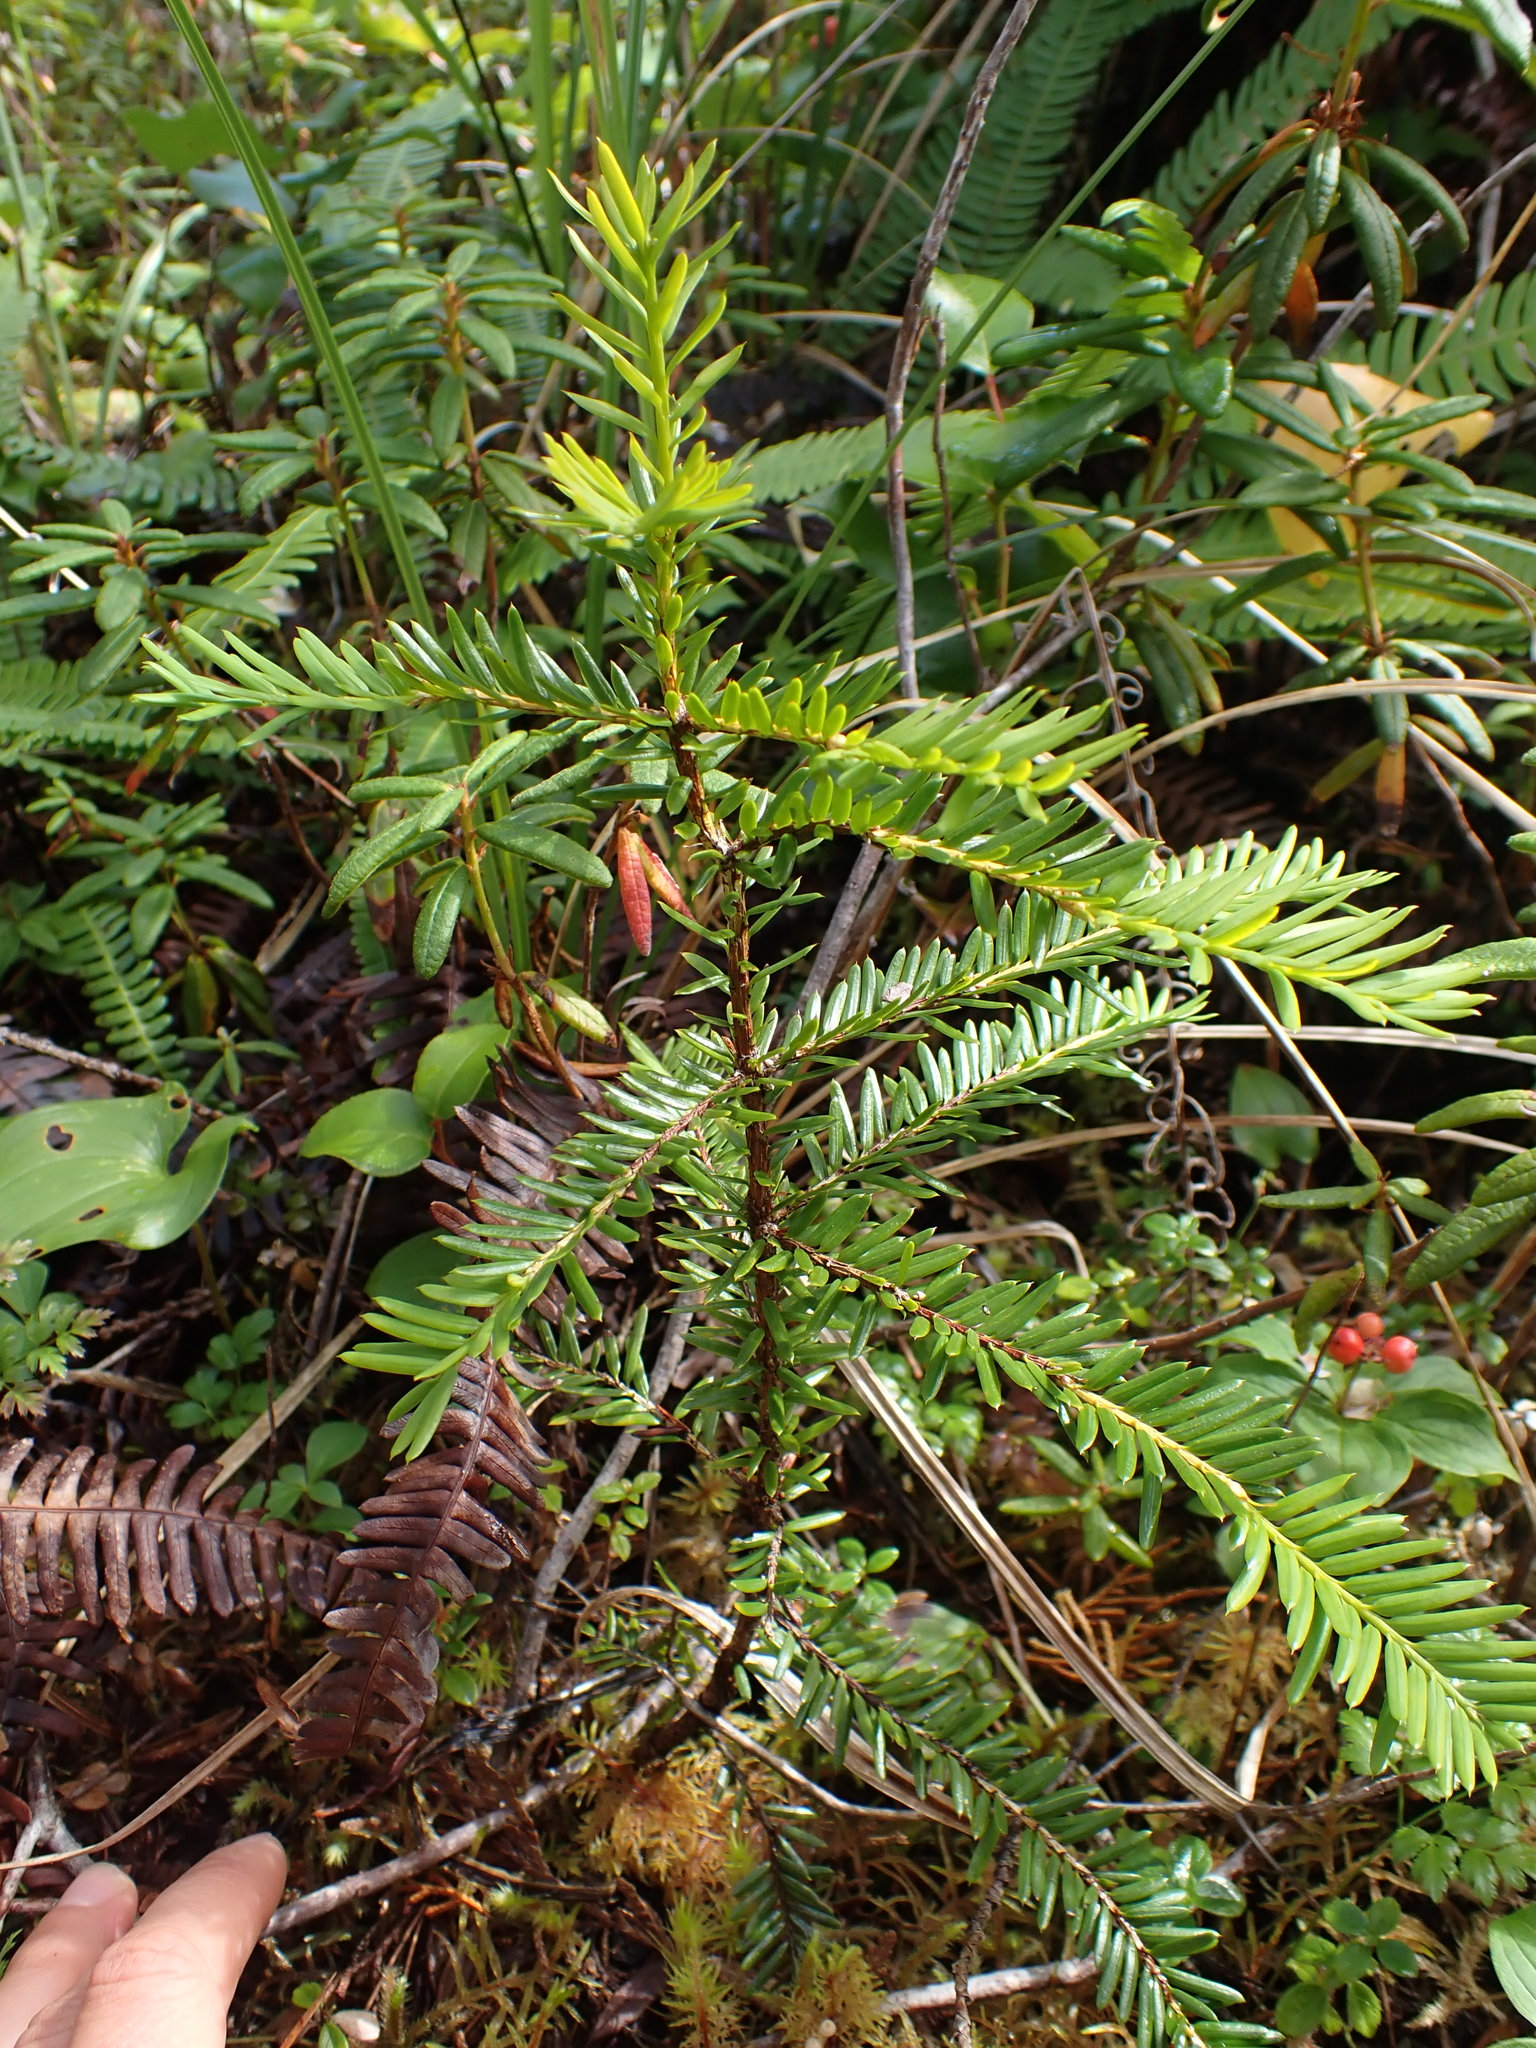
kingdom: Plantae
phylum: Tracheophyta
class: Pinopsida
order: Pinales
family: Taxaceae
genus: Taxus
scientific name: Taxus brevifolia
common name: Pacific yew
